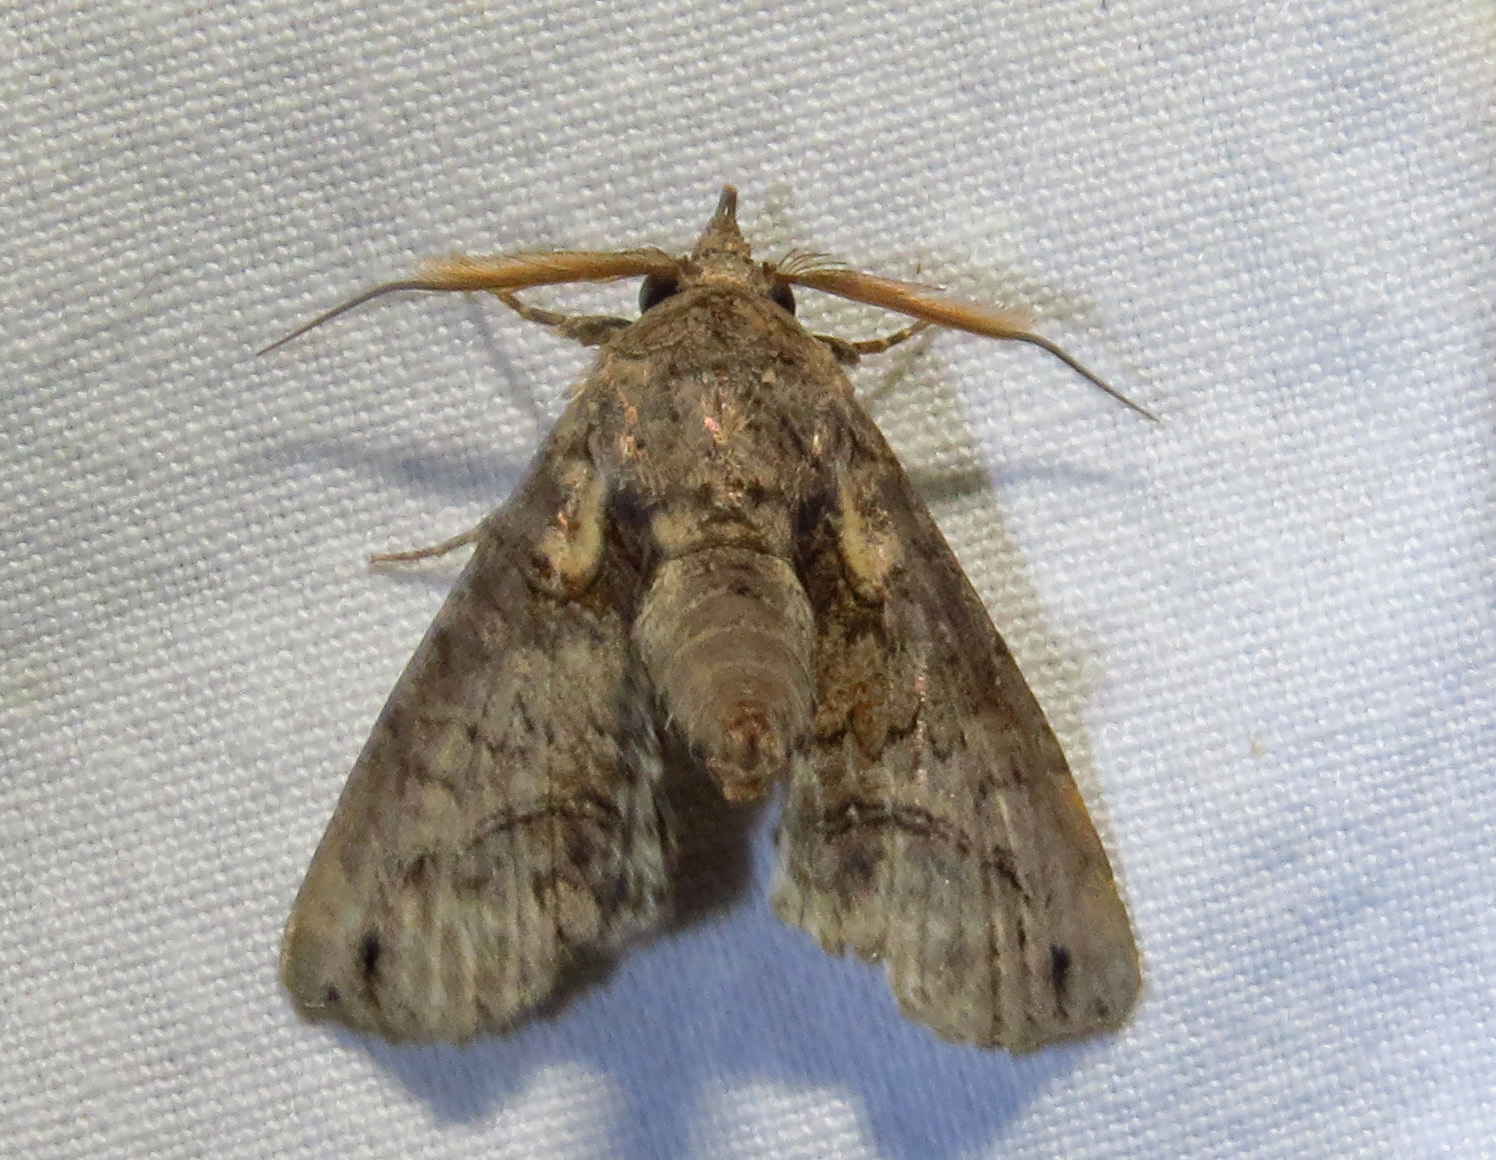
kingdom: Animalia
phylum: Arthropoda
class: Insecta
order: Lepidoptera
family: Euteliidae
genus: Paectes
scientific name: Paectes abrostoloides
